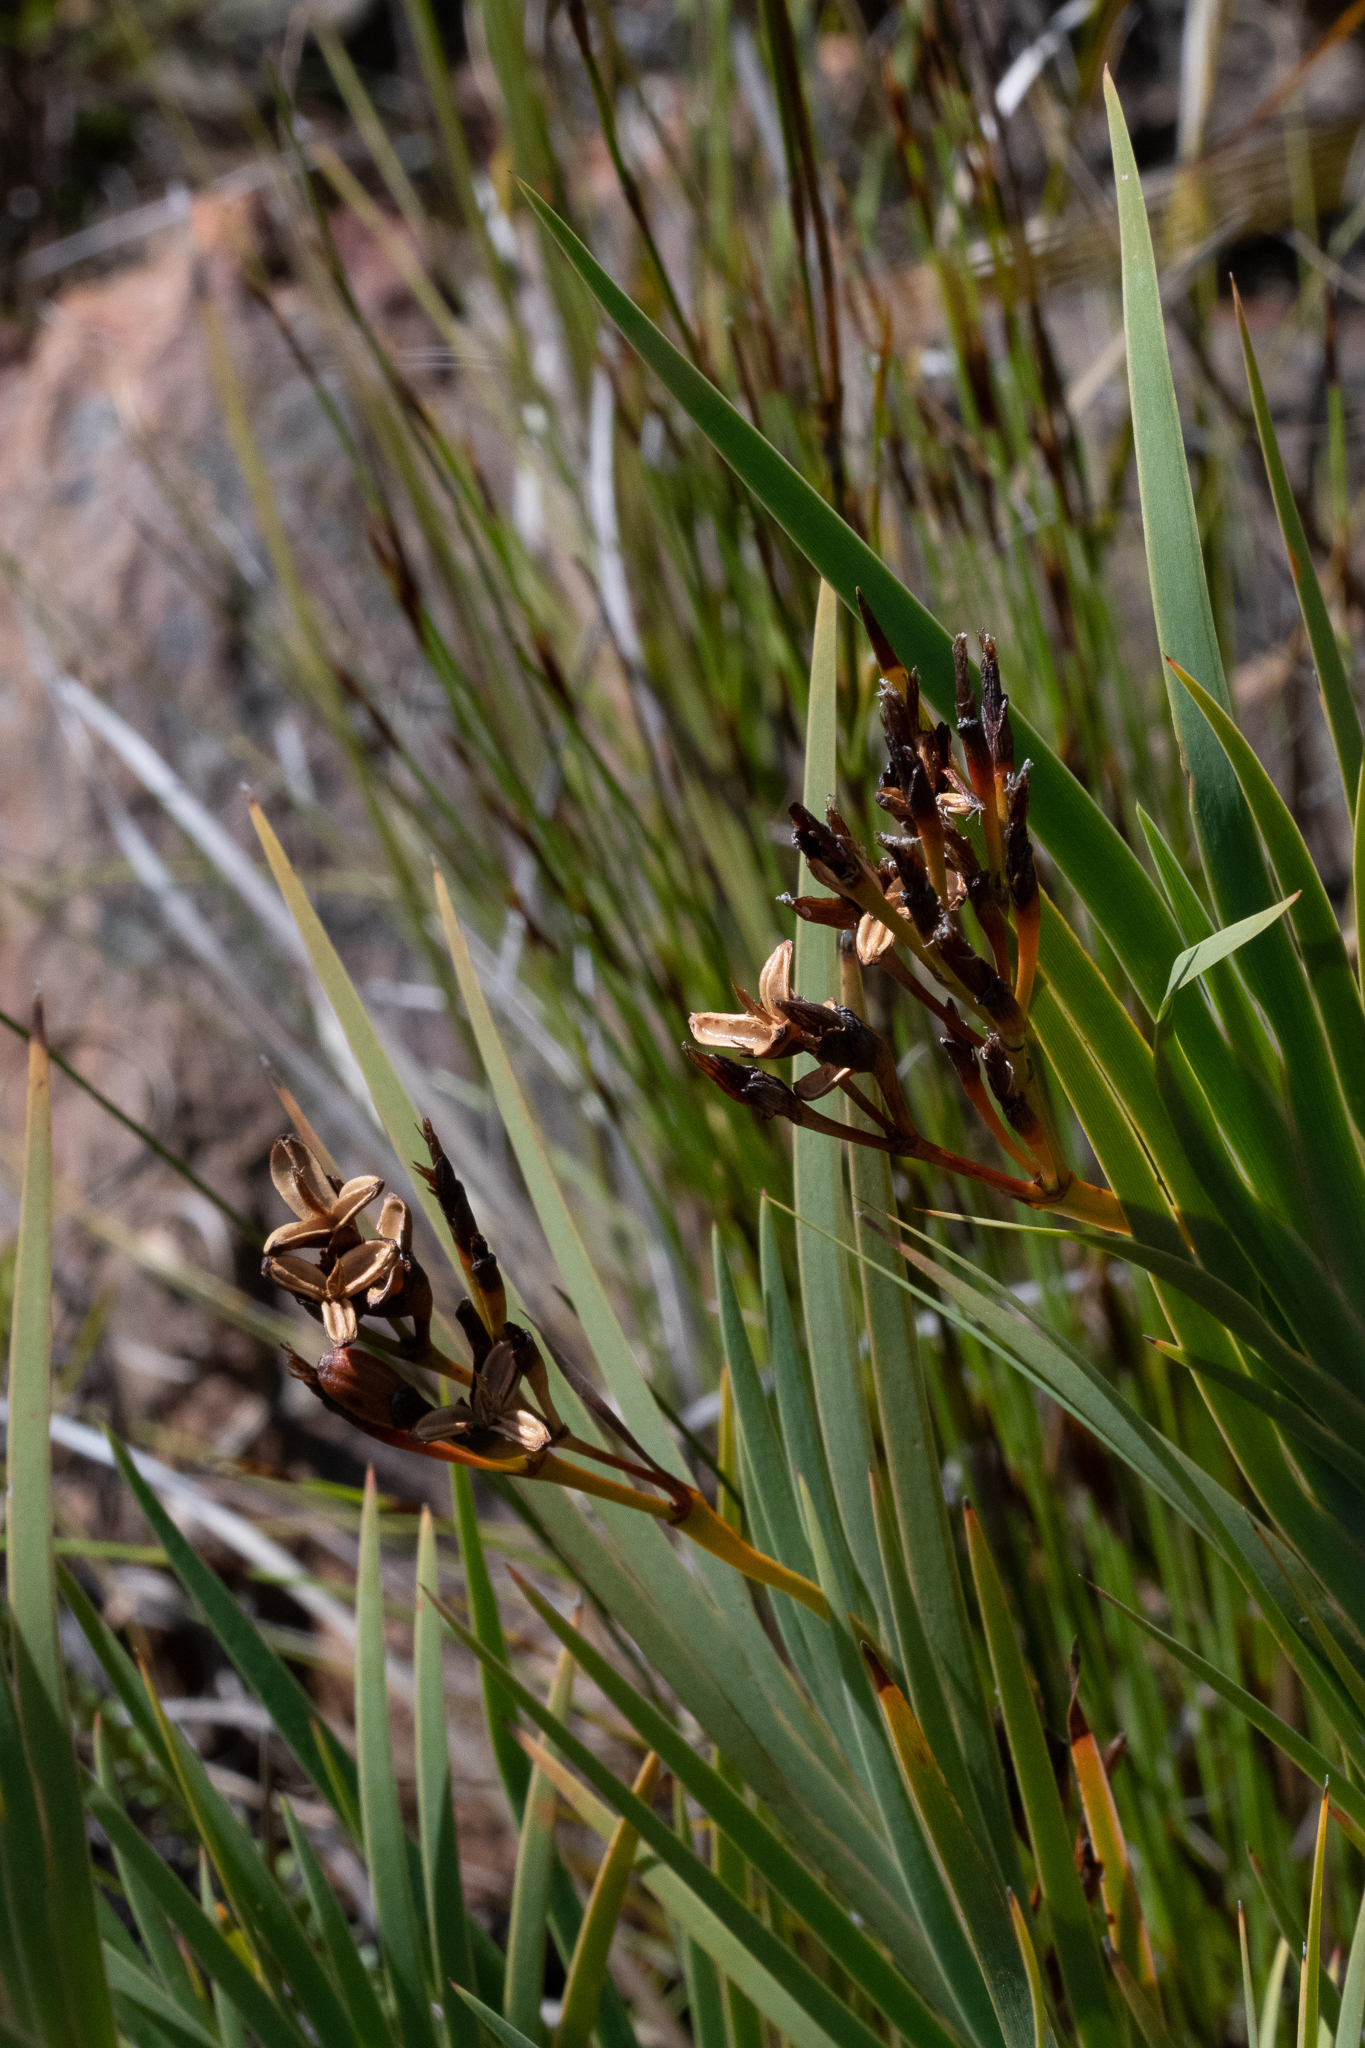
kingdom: Plantae
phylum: Tracheophyta
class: Liliopsida
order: Asparagales
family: Iridaceae
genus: Nivenia
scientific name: Nivenia stokoei
